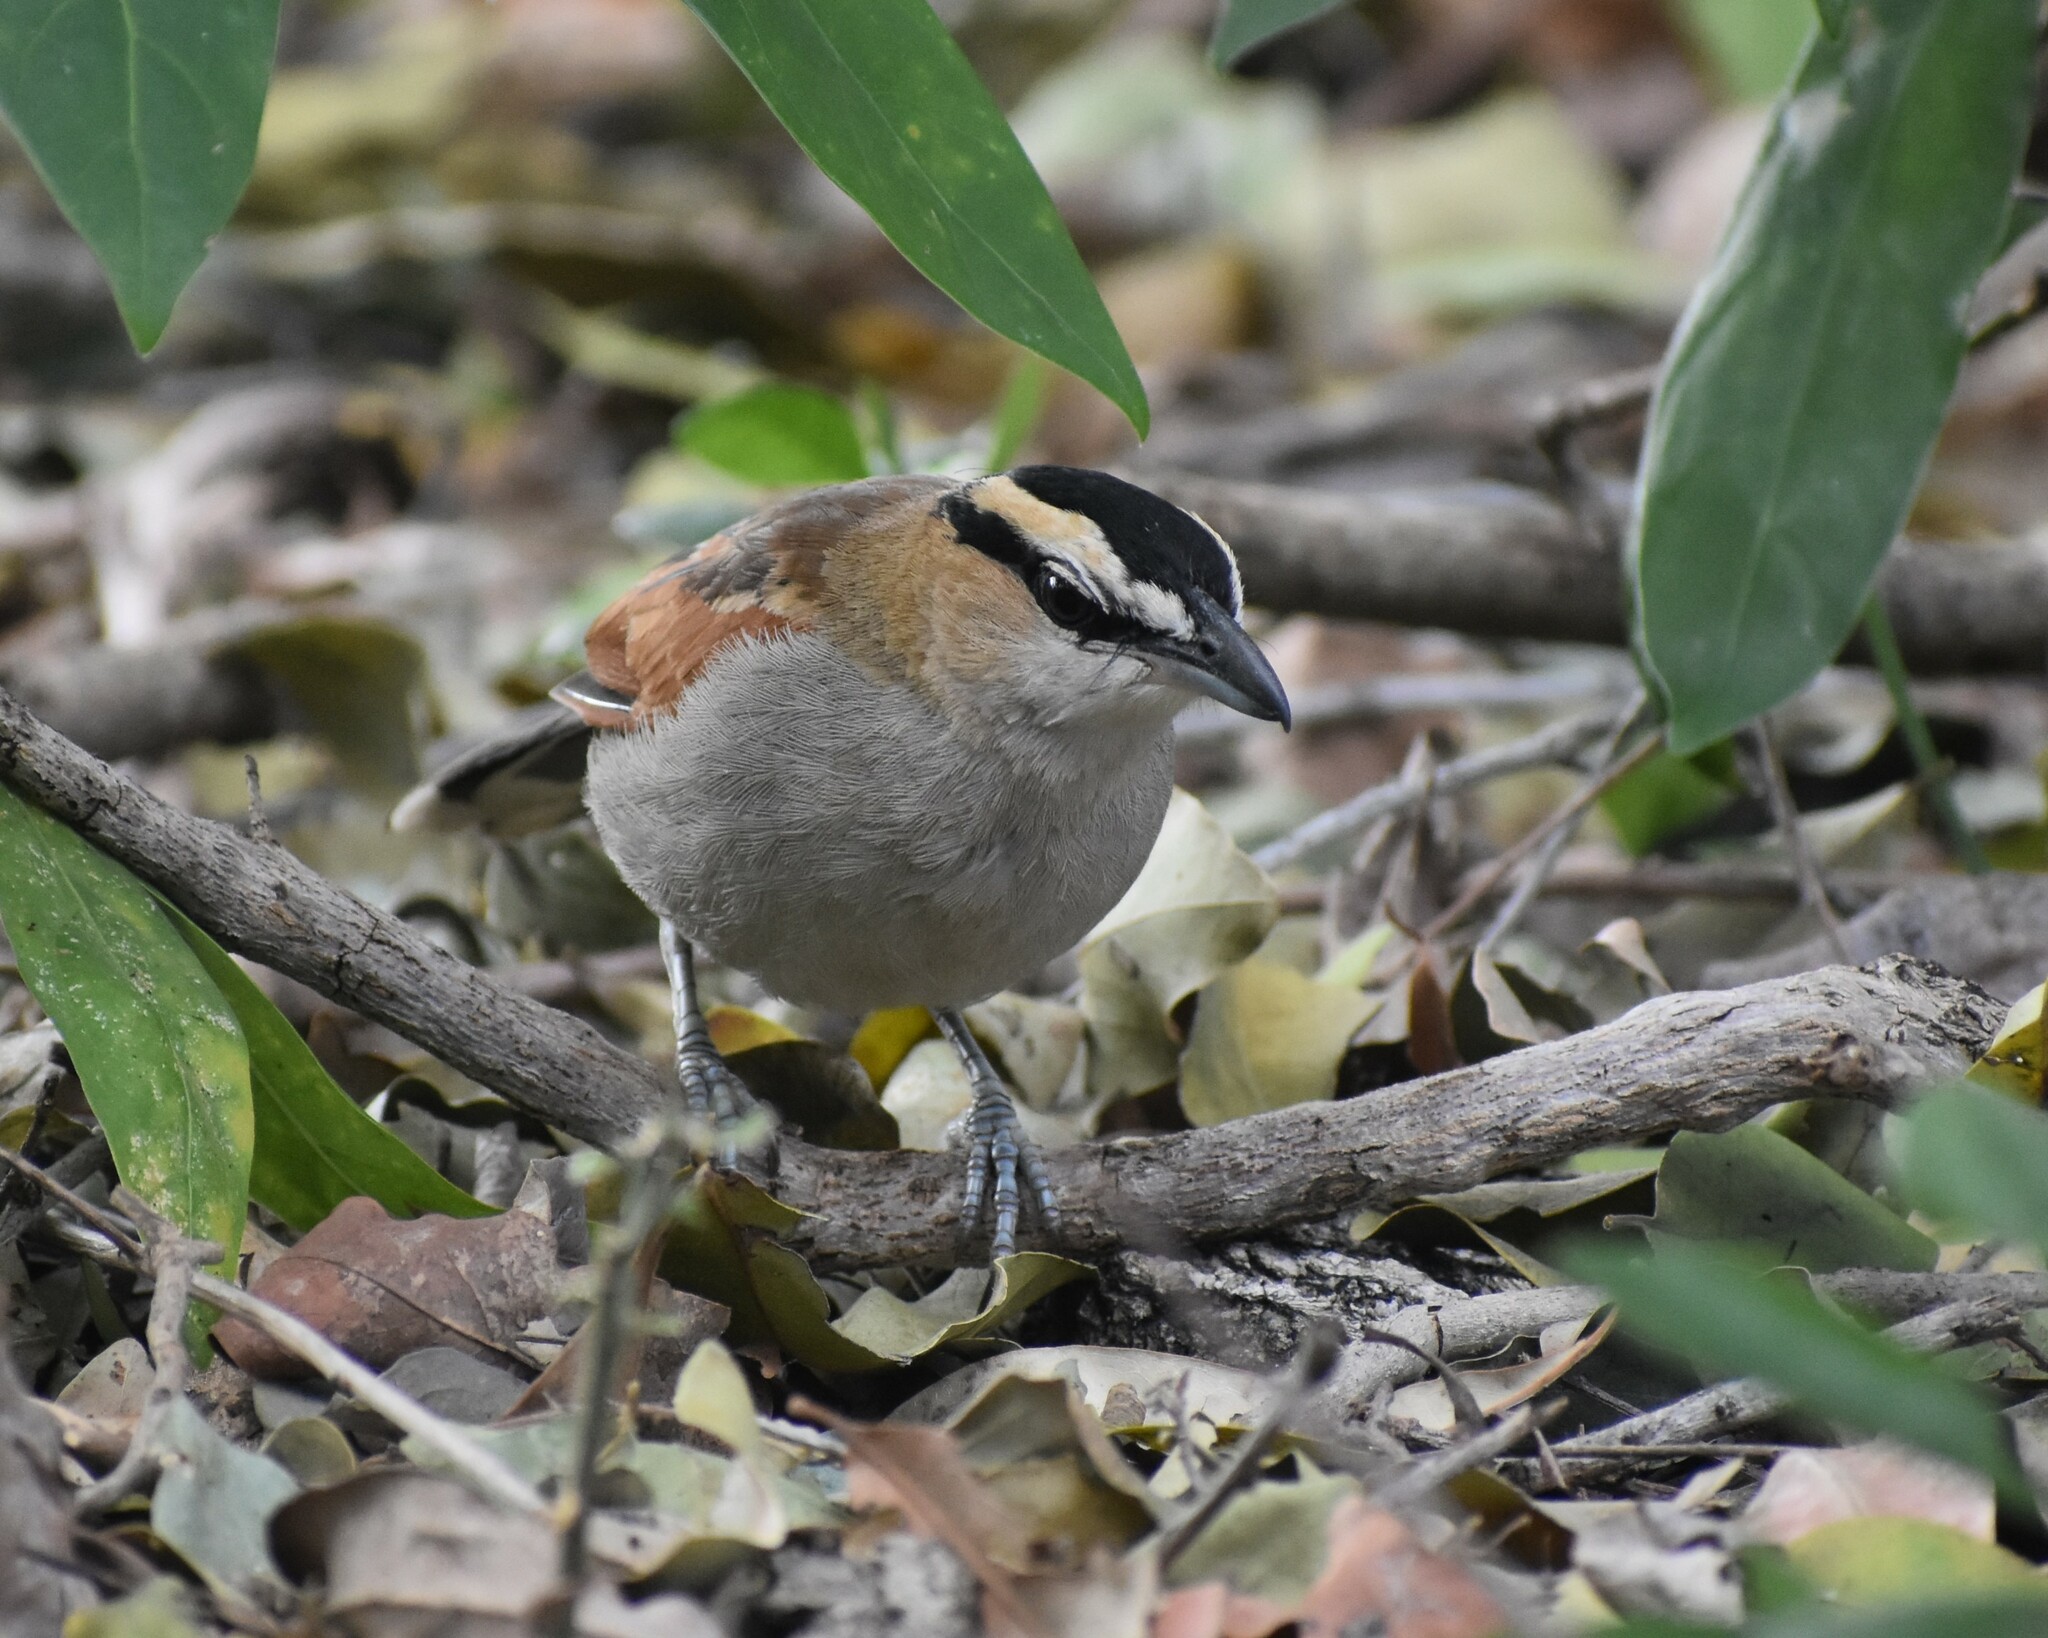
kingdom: Animalia
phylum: Chordata
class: Aves
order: Passeriformes
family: Malaconotidae
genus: Tchagra
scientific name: Tchagra senegalus
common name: Black-crowned tchagra
